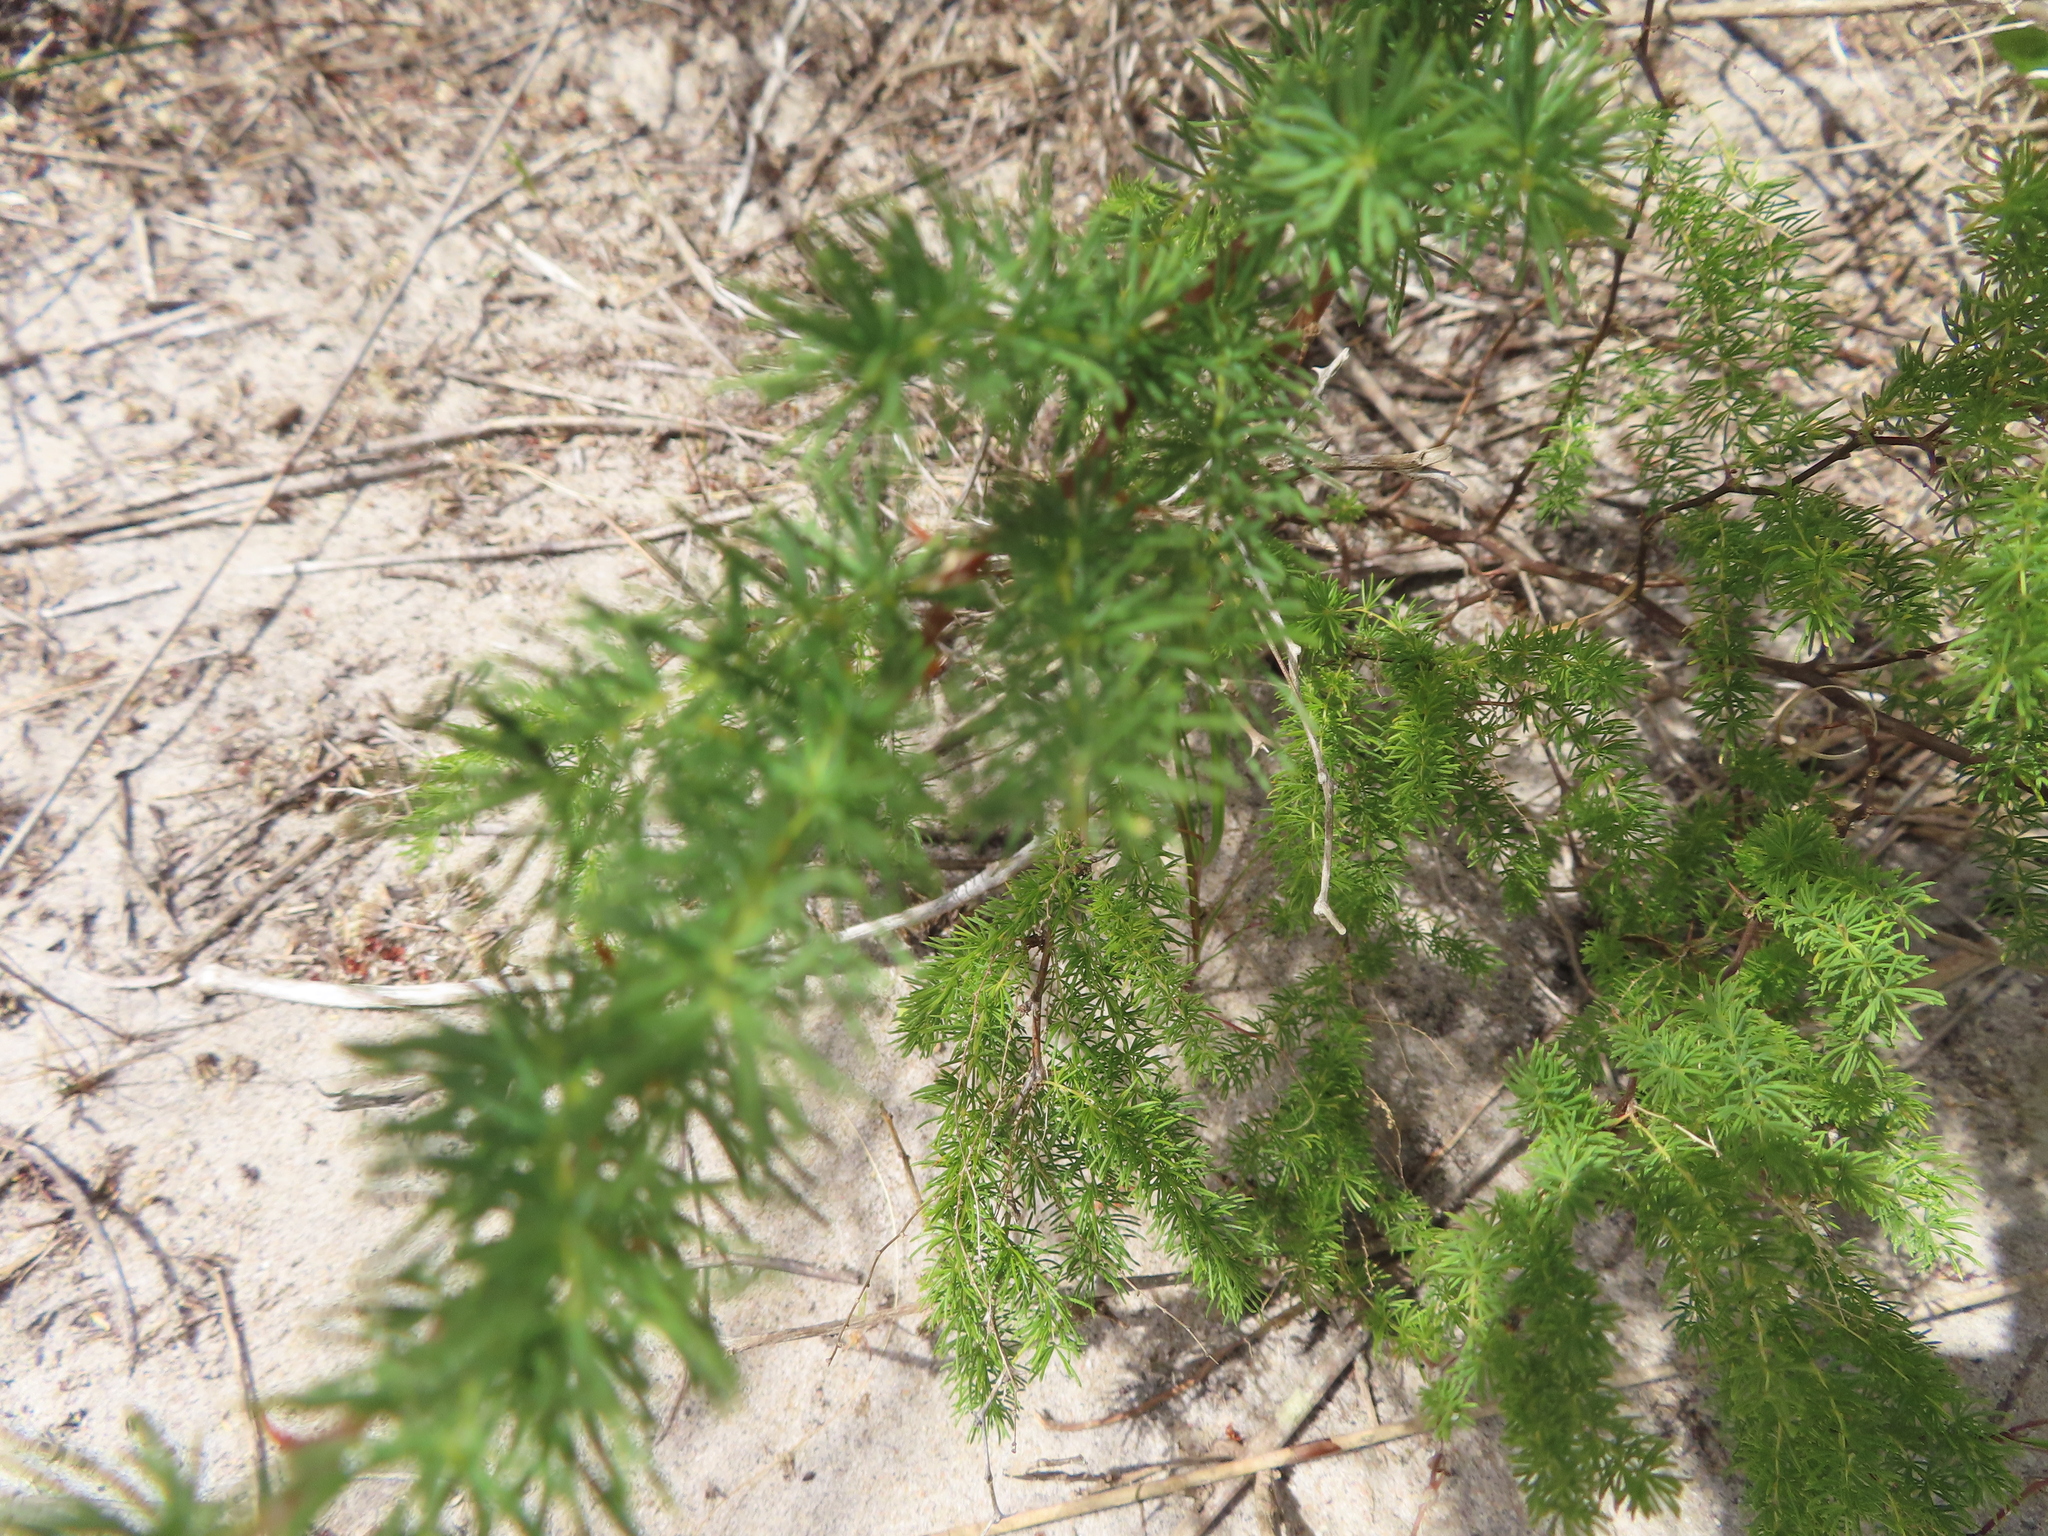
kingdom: Plantae
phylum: Tracheophyta
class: Liliopsida
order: Asparagales
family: Asparagaceae
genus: Asparagus
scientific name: Asparagus rubicundus
